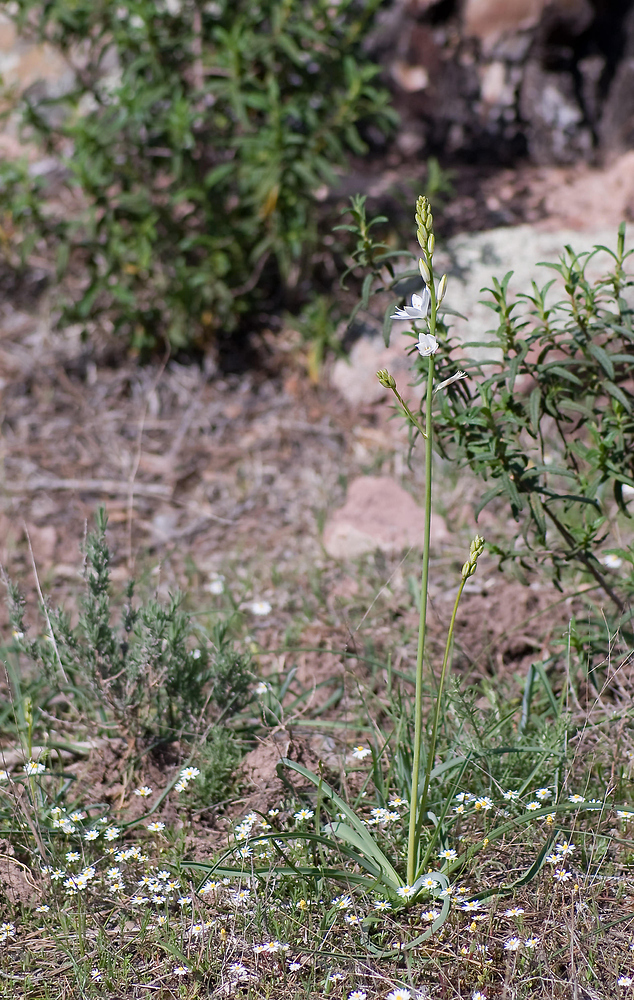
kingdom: Plantae
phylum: Tracheophyta
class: Liliopsida
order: Asparagales
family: Asparagaceae
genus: Anthericum
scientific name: Anthericum liliago
